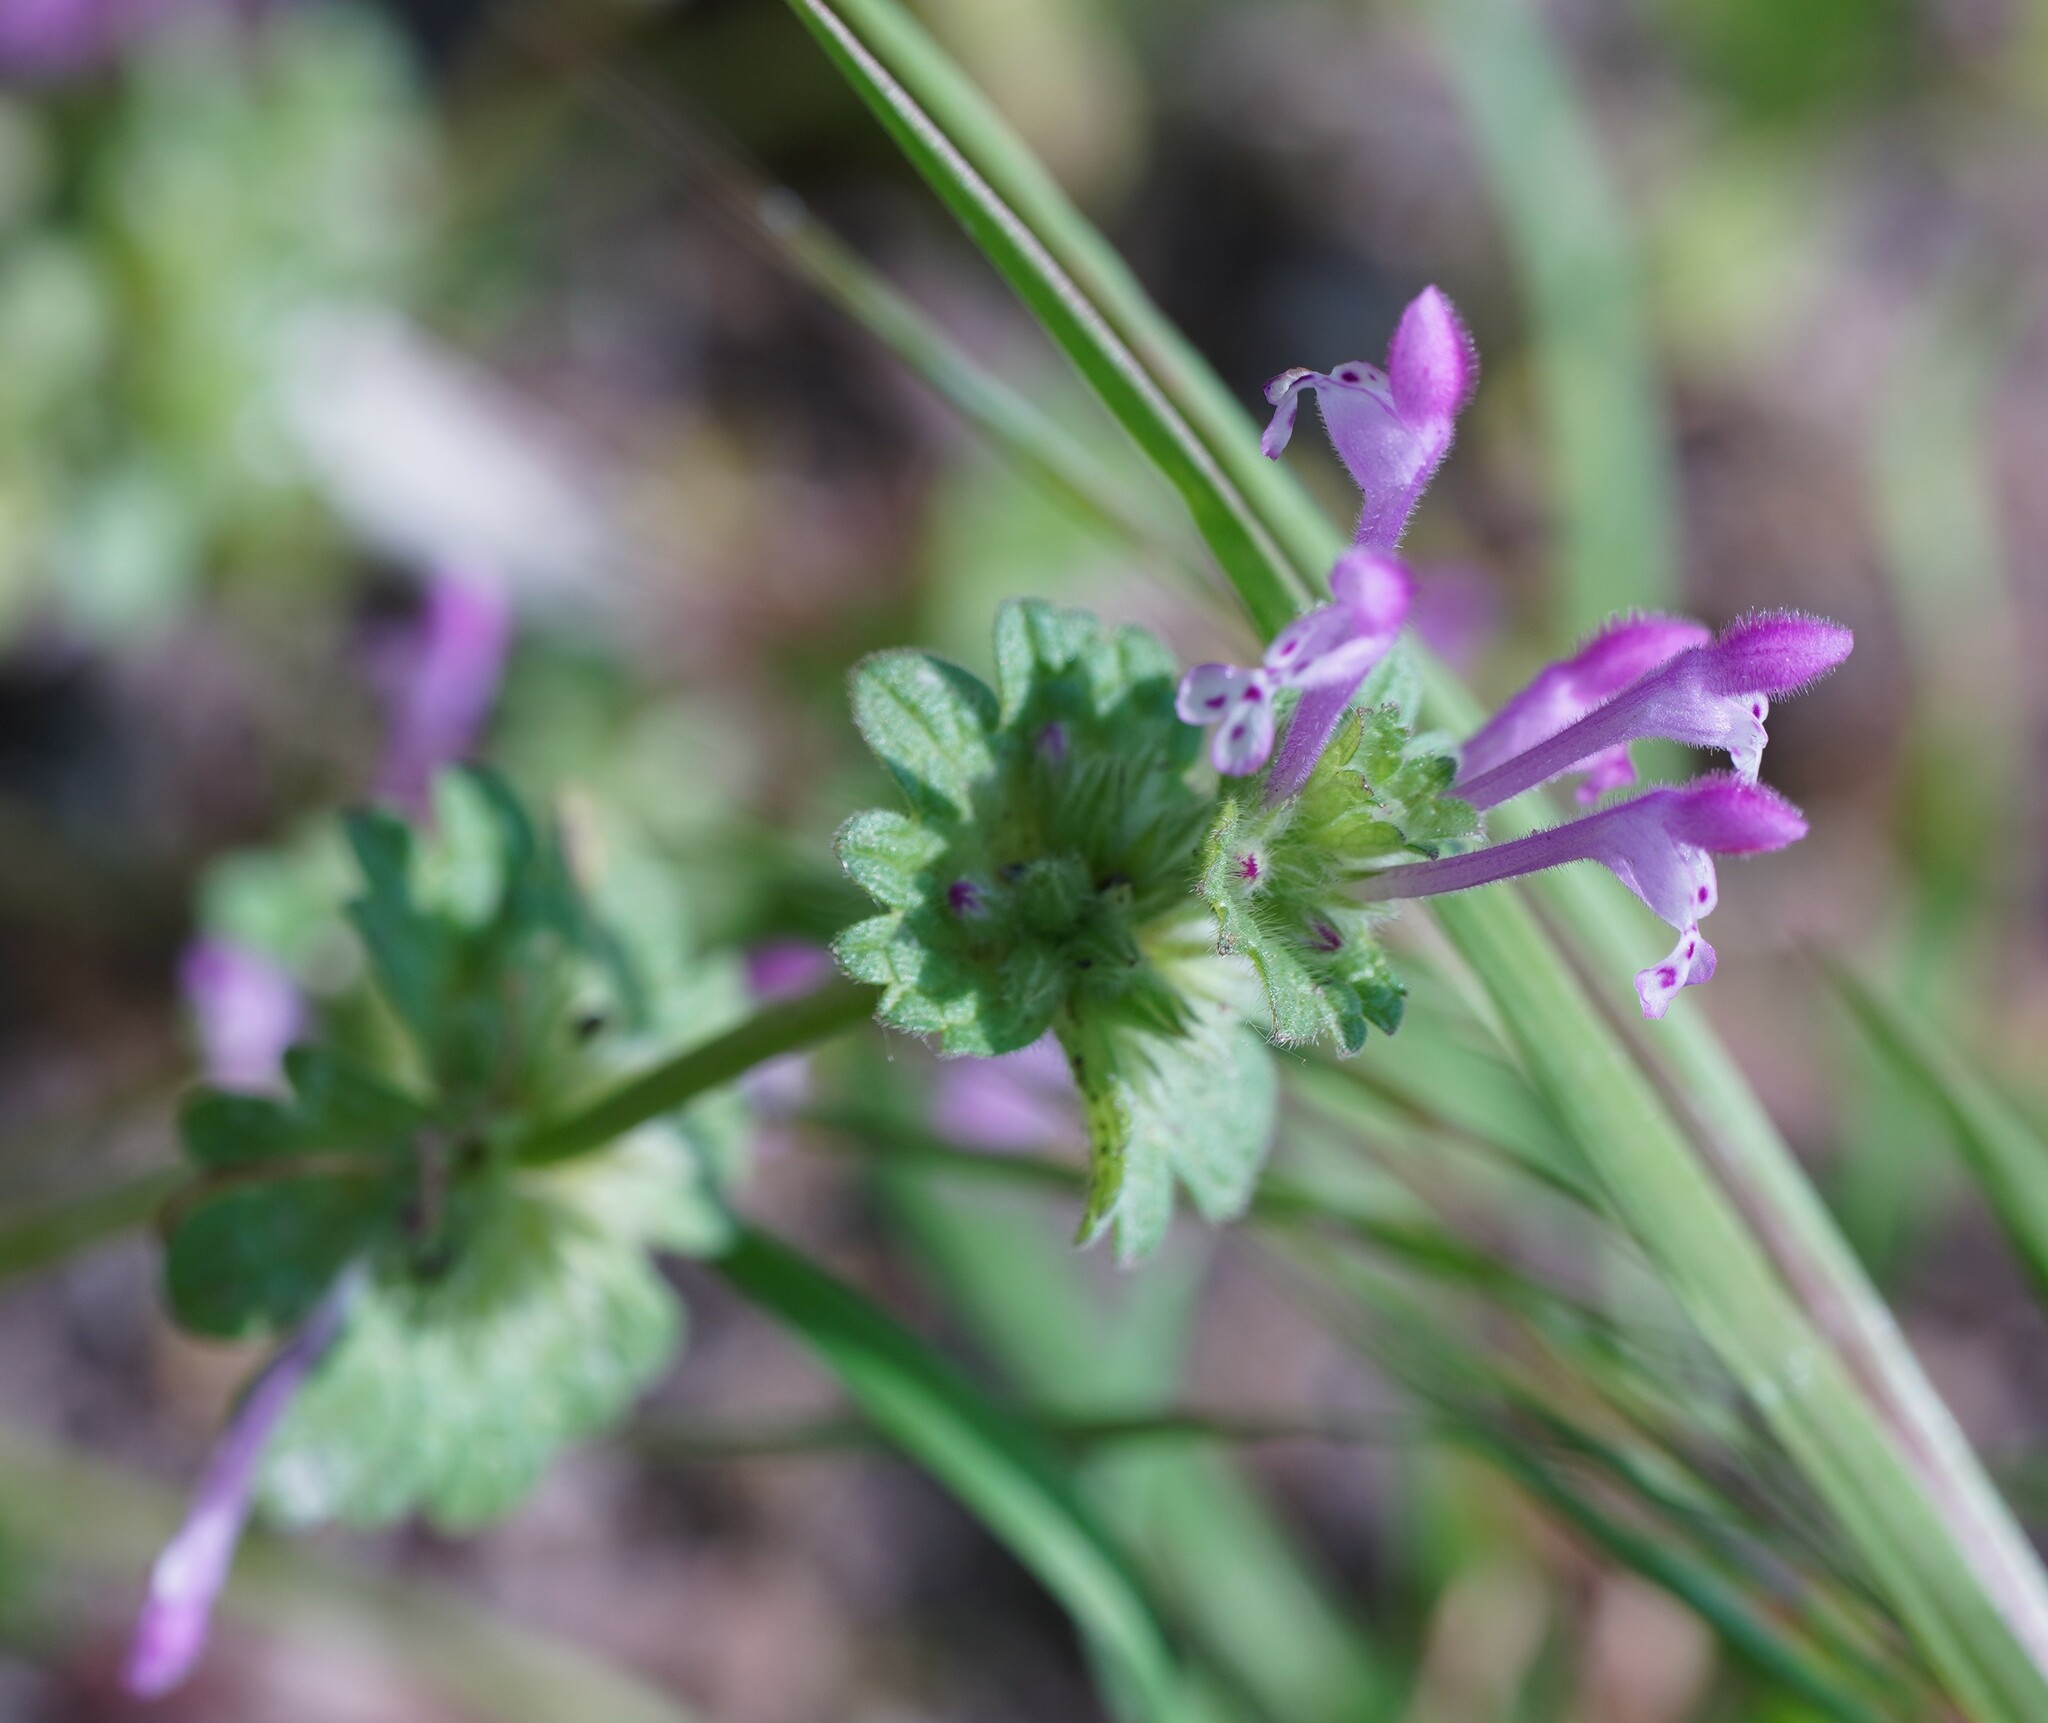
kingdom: Plantae
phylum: Tracheophyta
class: Magnoliopsida
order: Lamiales
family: Lamiaceae
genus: Lamium
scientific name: Lamium amplexicaule
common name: Henbit dead-nettle
